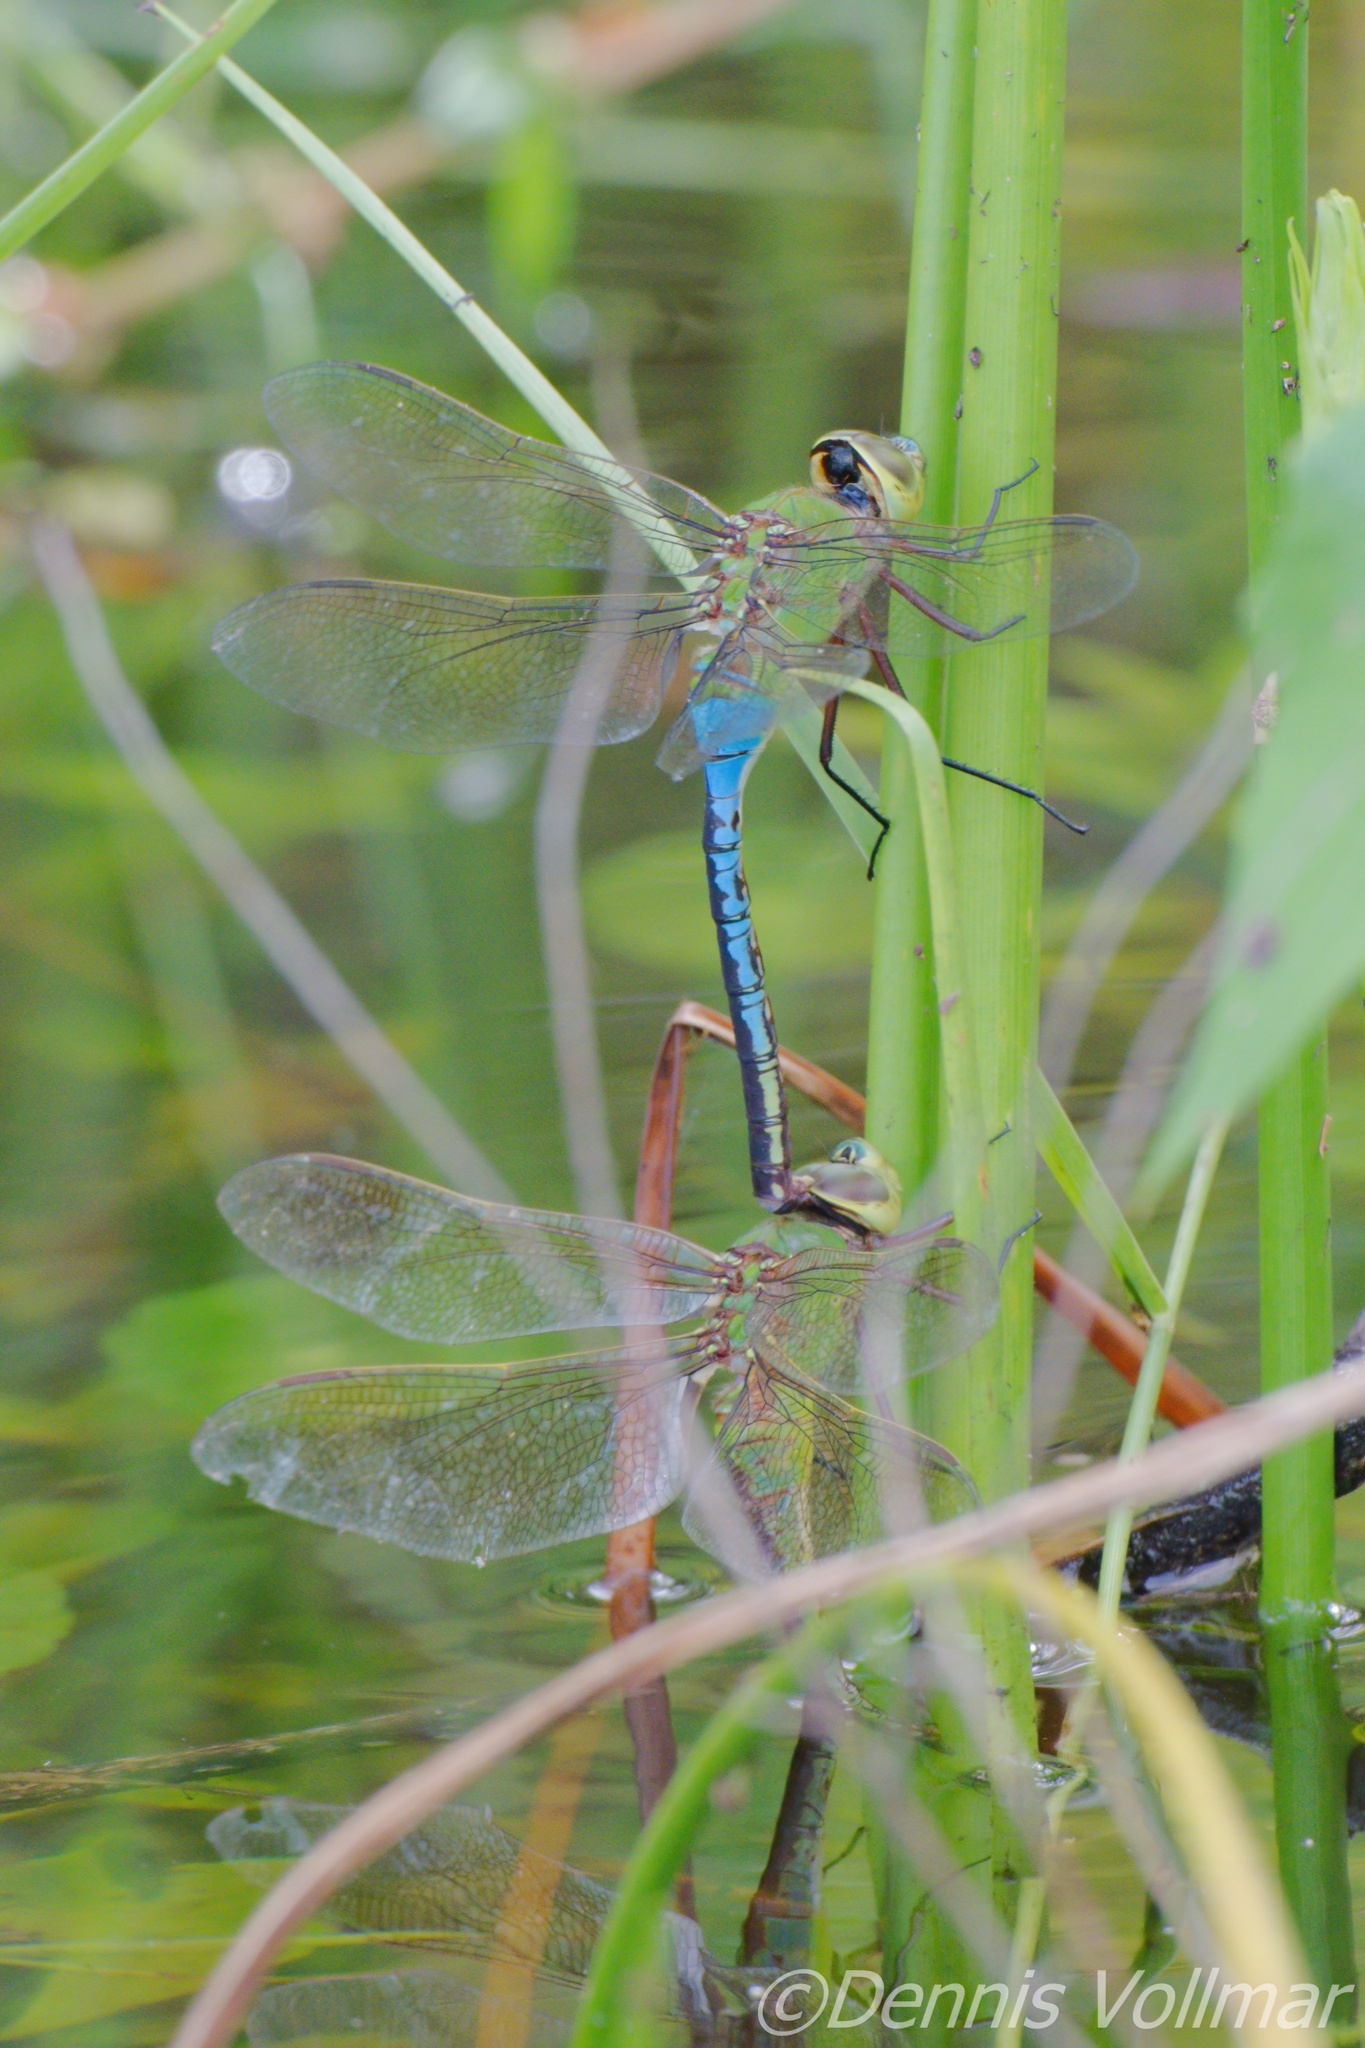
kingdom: Animalia
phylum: Arthropoda
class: Insecta
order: Odonata
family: Aeshnidae
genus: Anax
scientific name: Anax junius
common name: Common green darner
